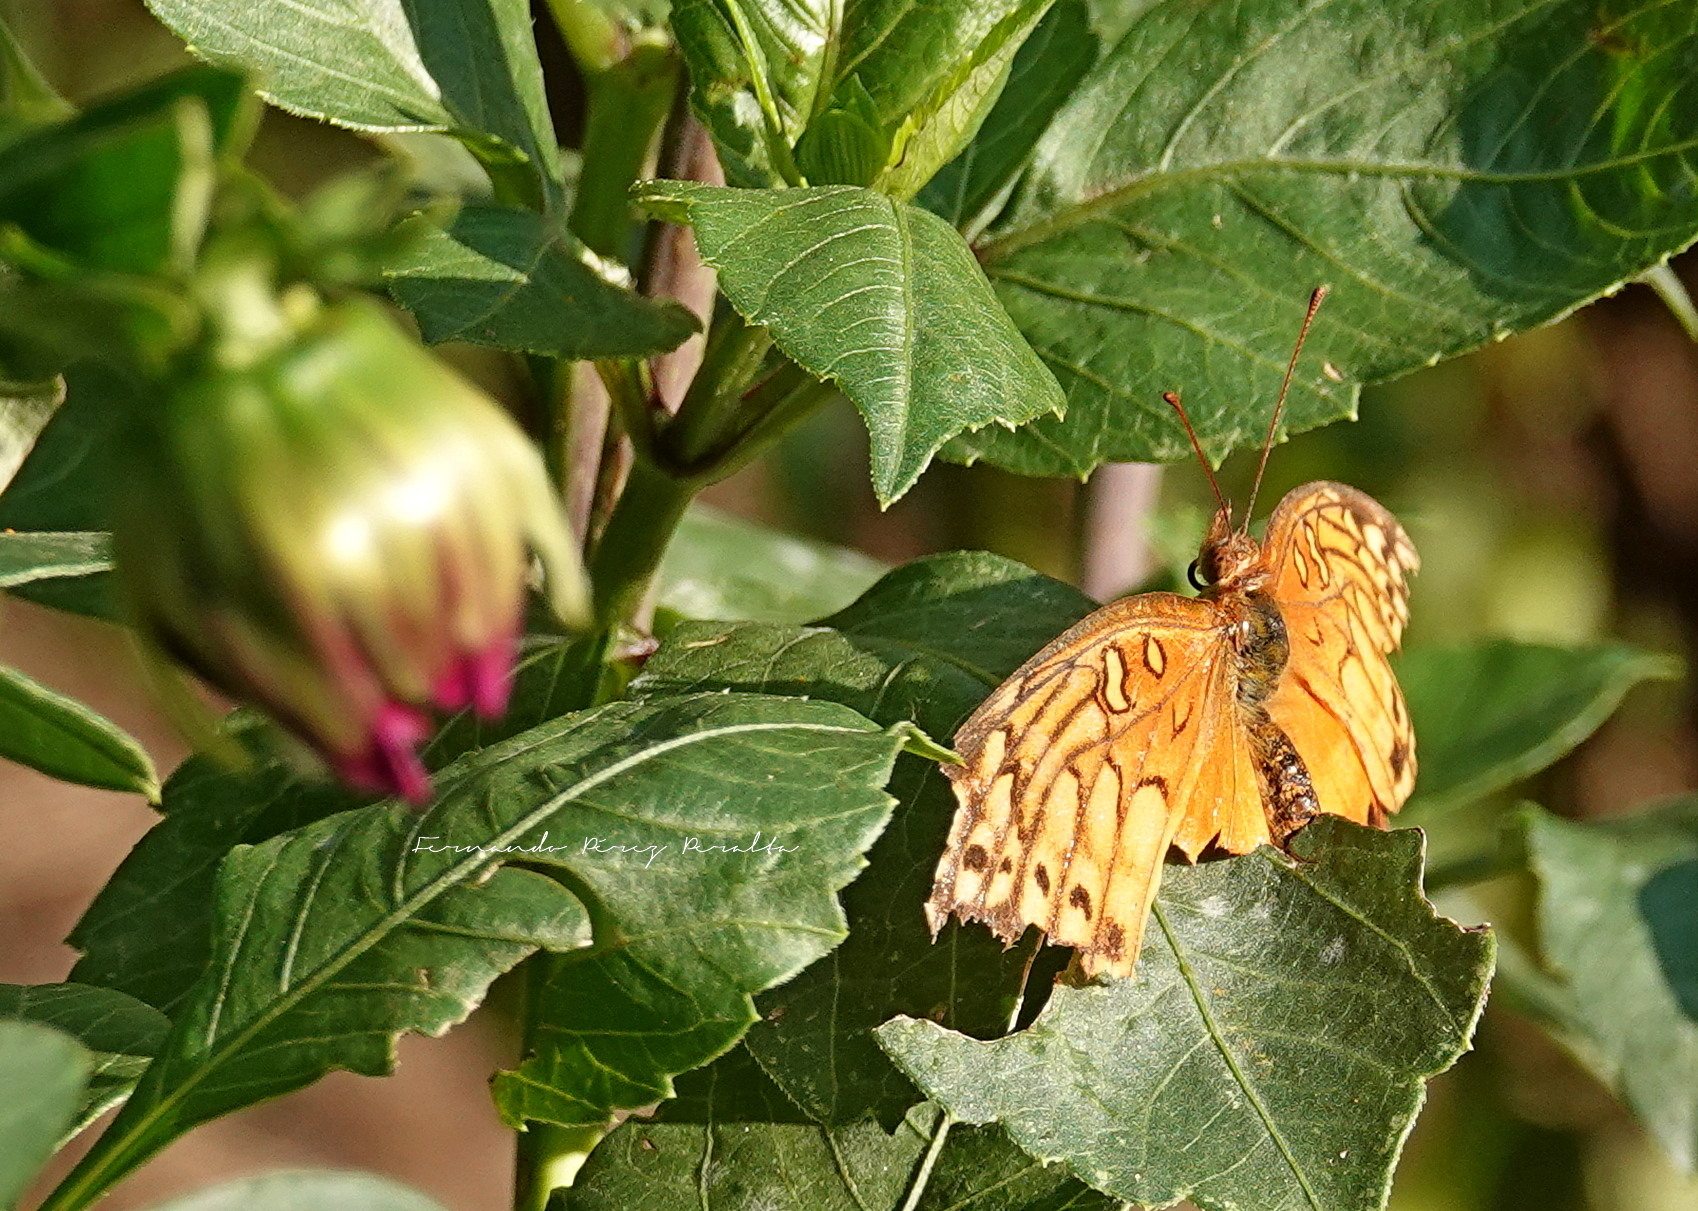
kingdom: Animalia
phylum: Arthropoda
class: Insecta
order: Lepidoptera
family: Nymphalidae
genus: Euptoieta
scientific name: Euptoieta hegesia
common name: Mexican fritillary
